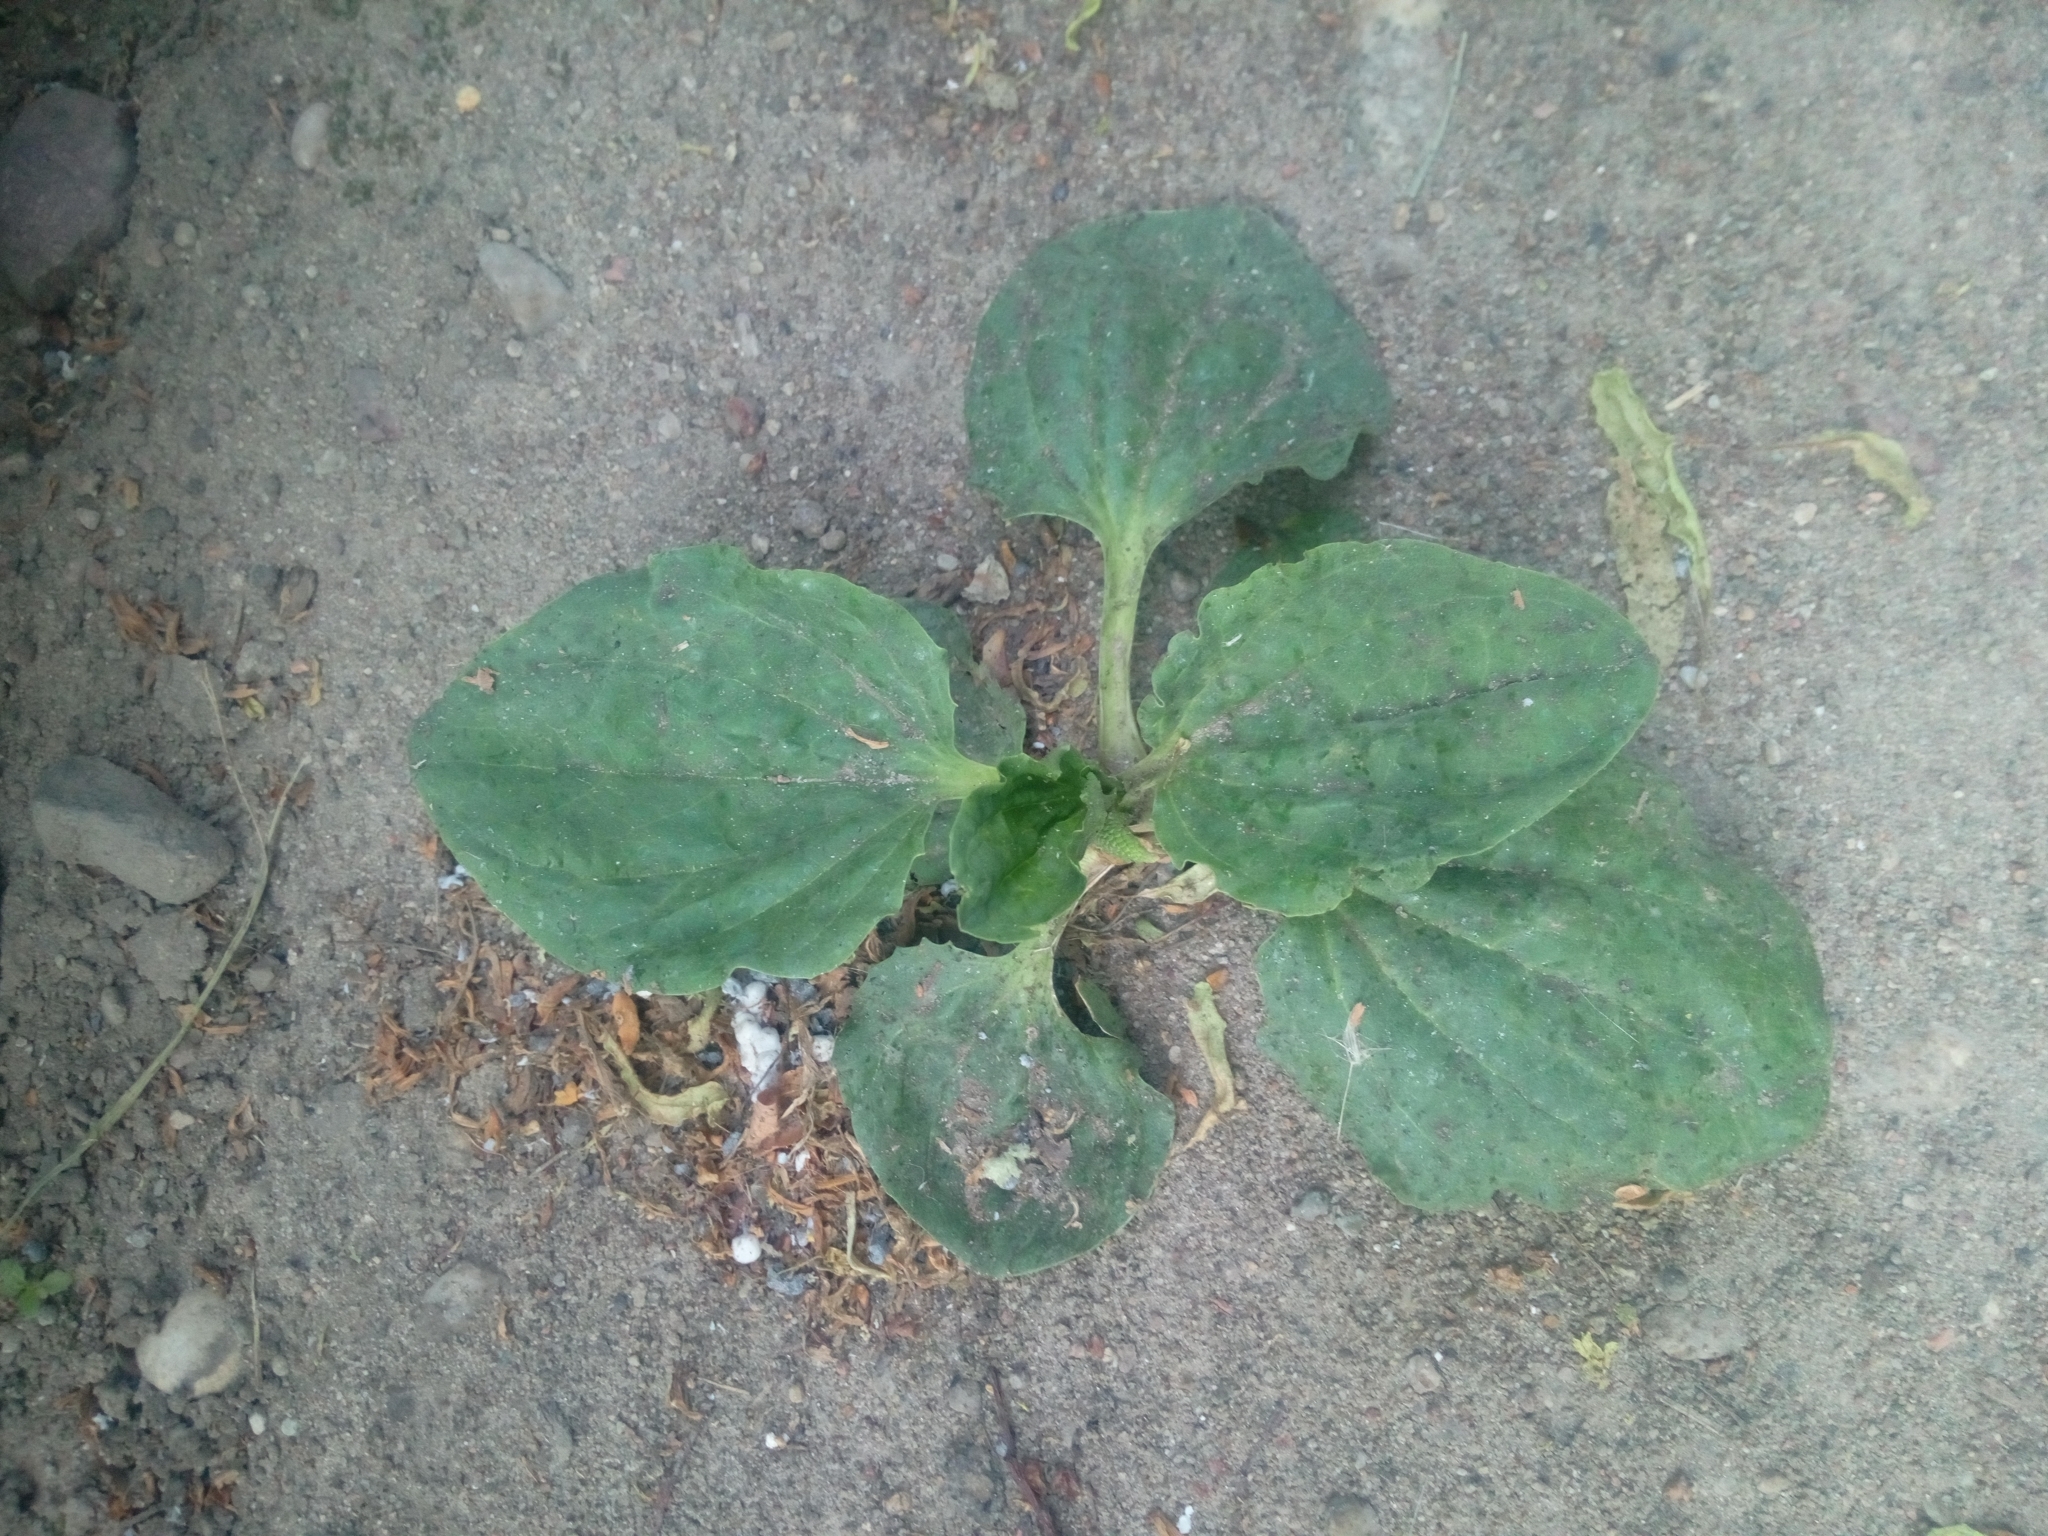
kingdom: Plantae
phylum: Tracheophyta
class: Magnoliopsida
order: Lamiales
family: Plantaginaceae
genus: Plantago
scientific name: Plantago major
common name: Common plantain
